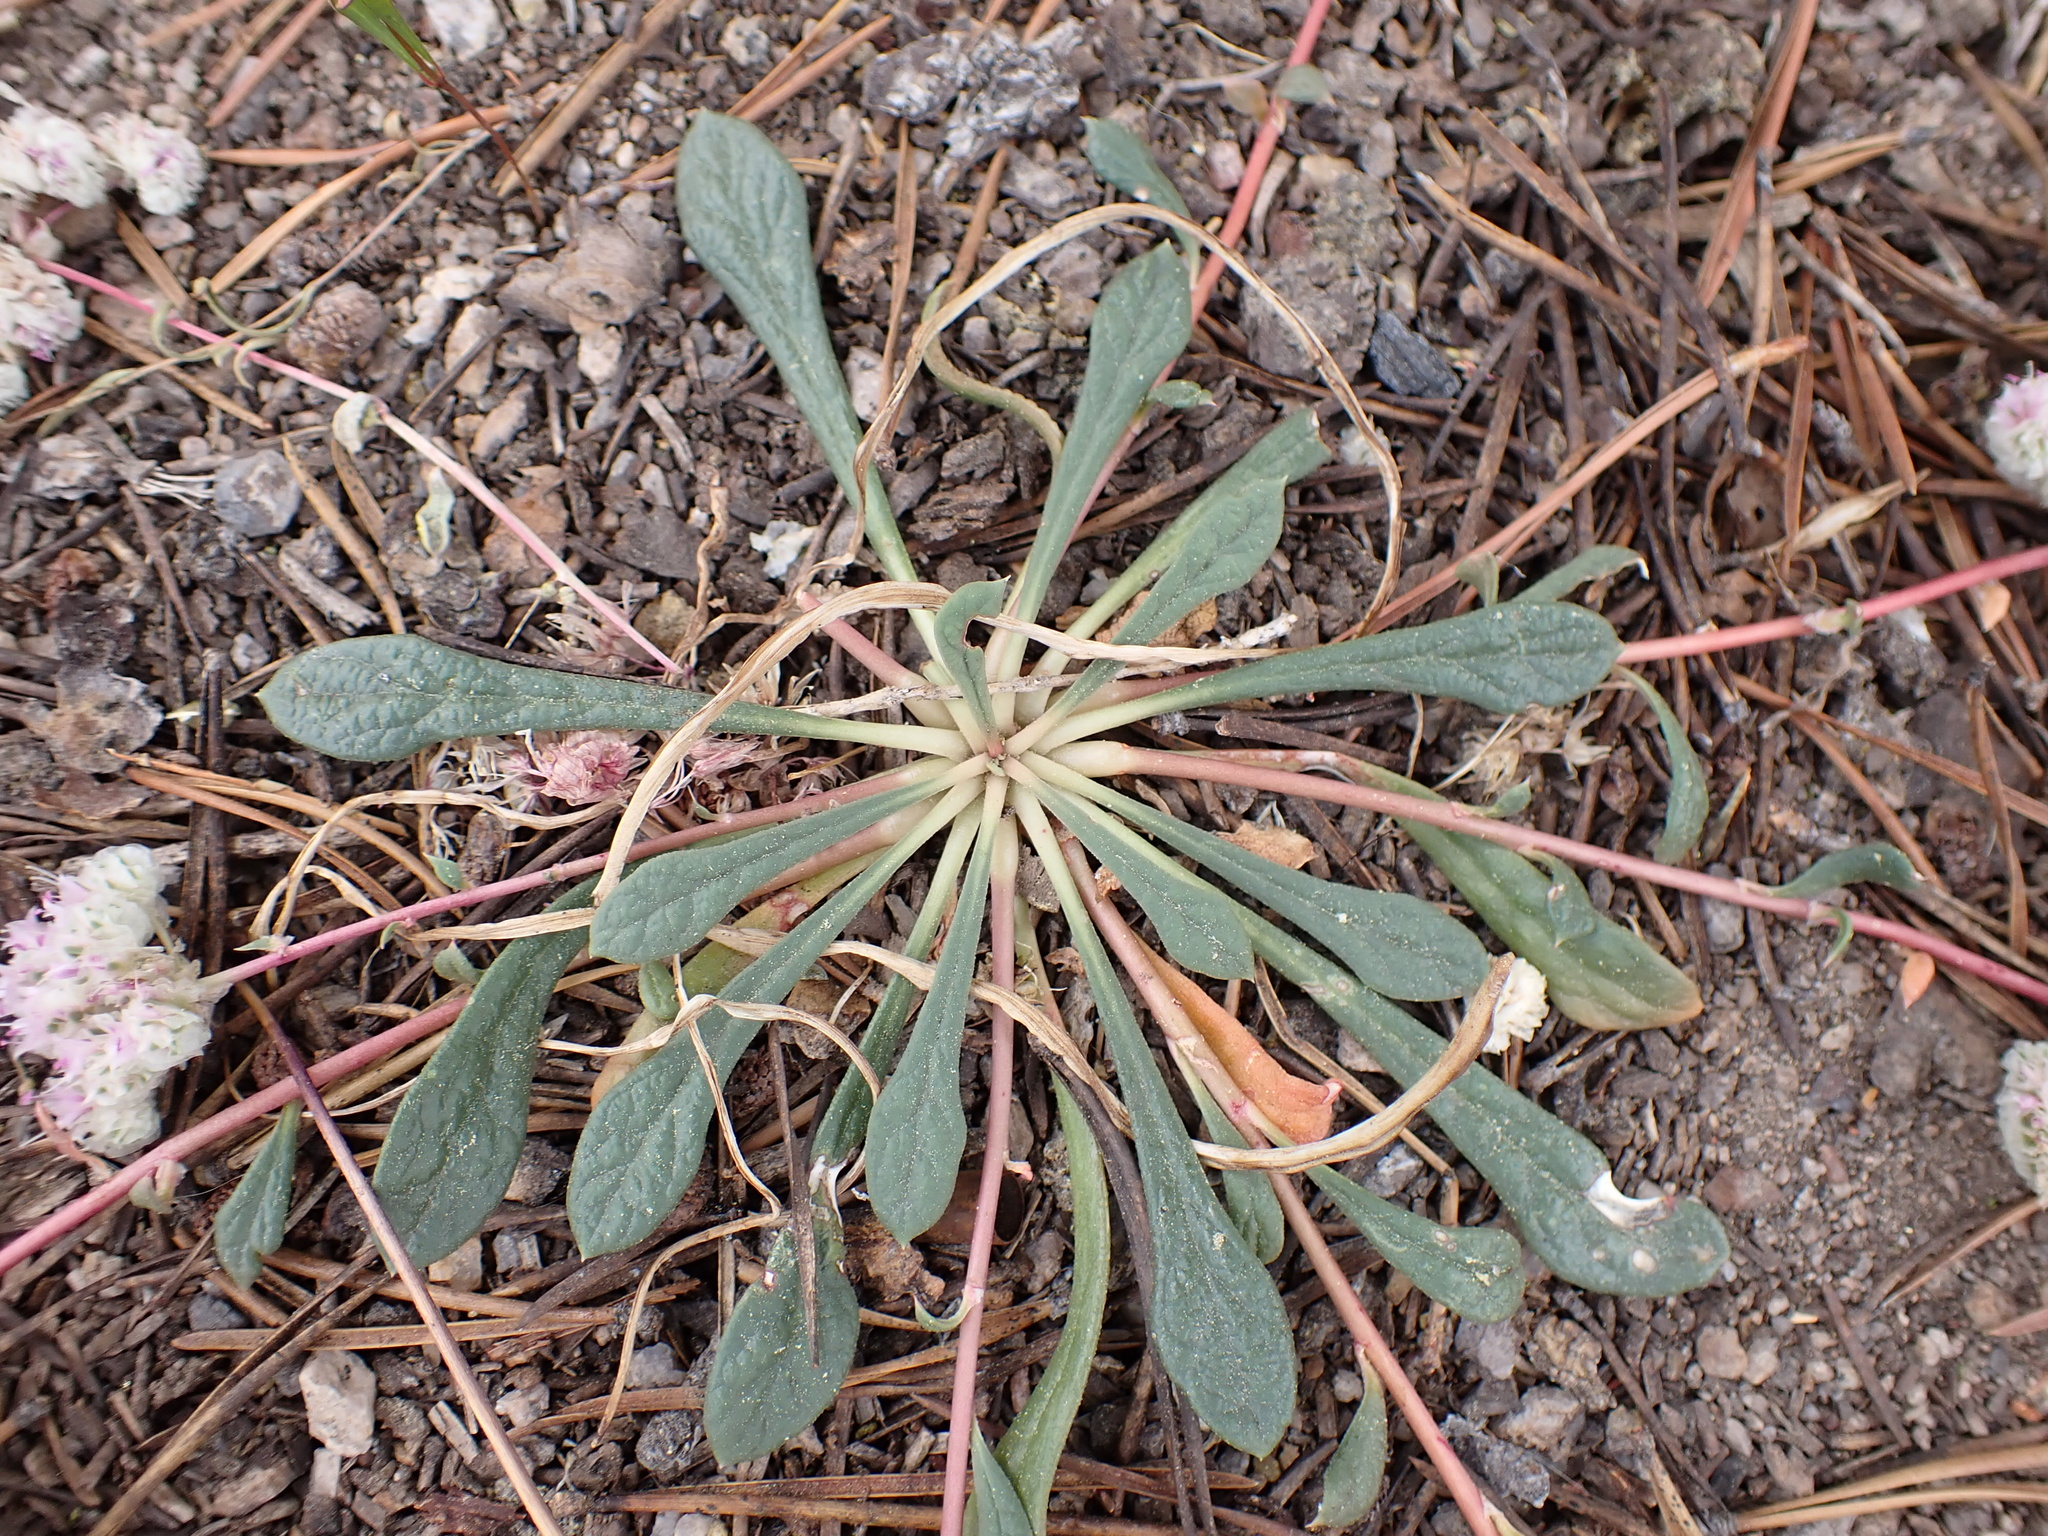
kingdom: Plantae
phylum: Tracheophyta
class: Magnoliopsida
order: Caryophyllales
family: Montiaceae
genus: Calyptridium
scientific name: Calyptridium monospermum
